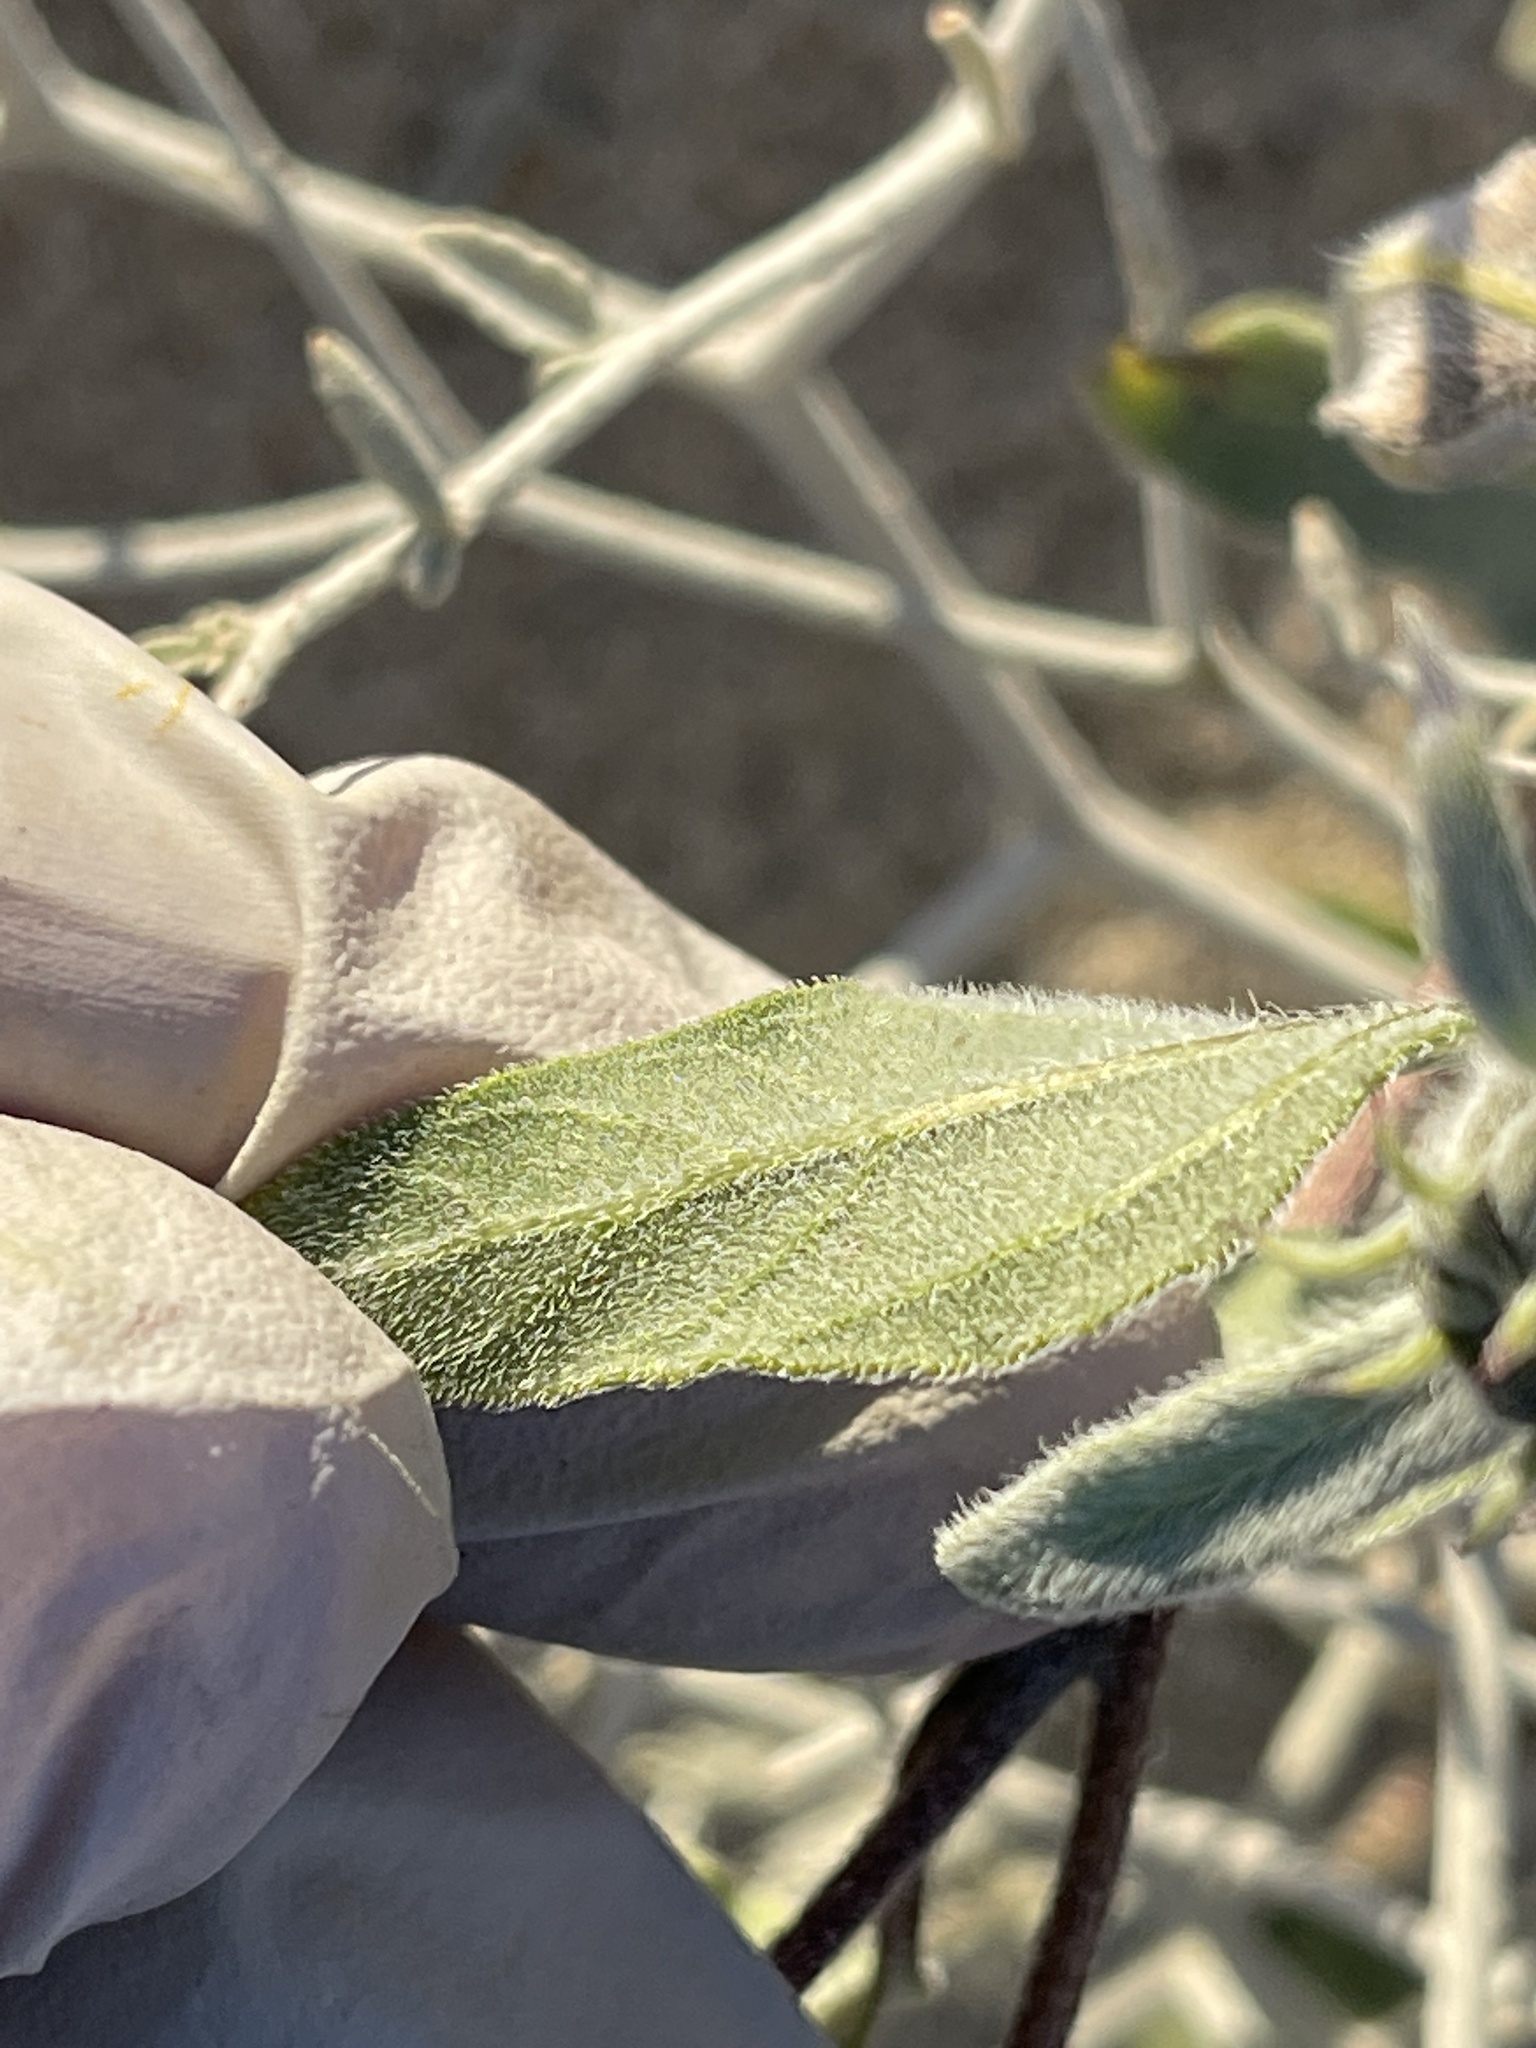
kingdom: Plantae
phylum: Tracheophyta
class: Magnoliopsida
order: Asterales
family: Asteraceae
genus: Helianthus
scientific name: Helianthus petiolaris
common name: Lesser sunflower
